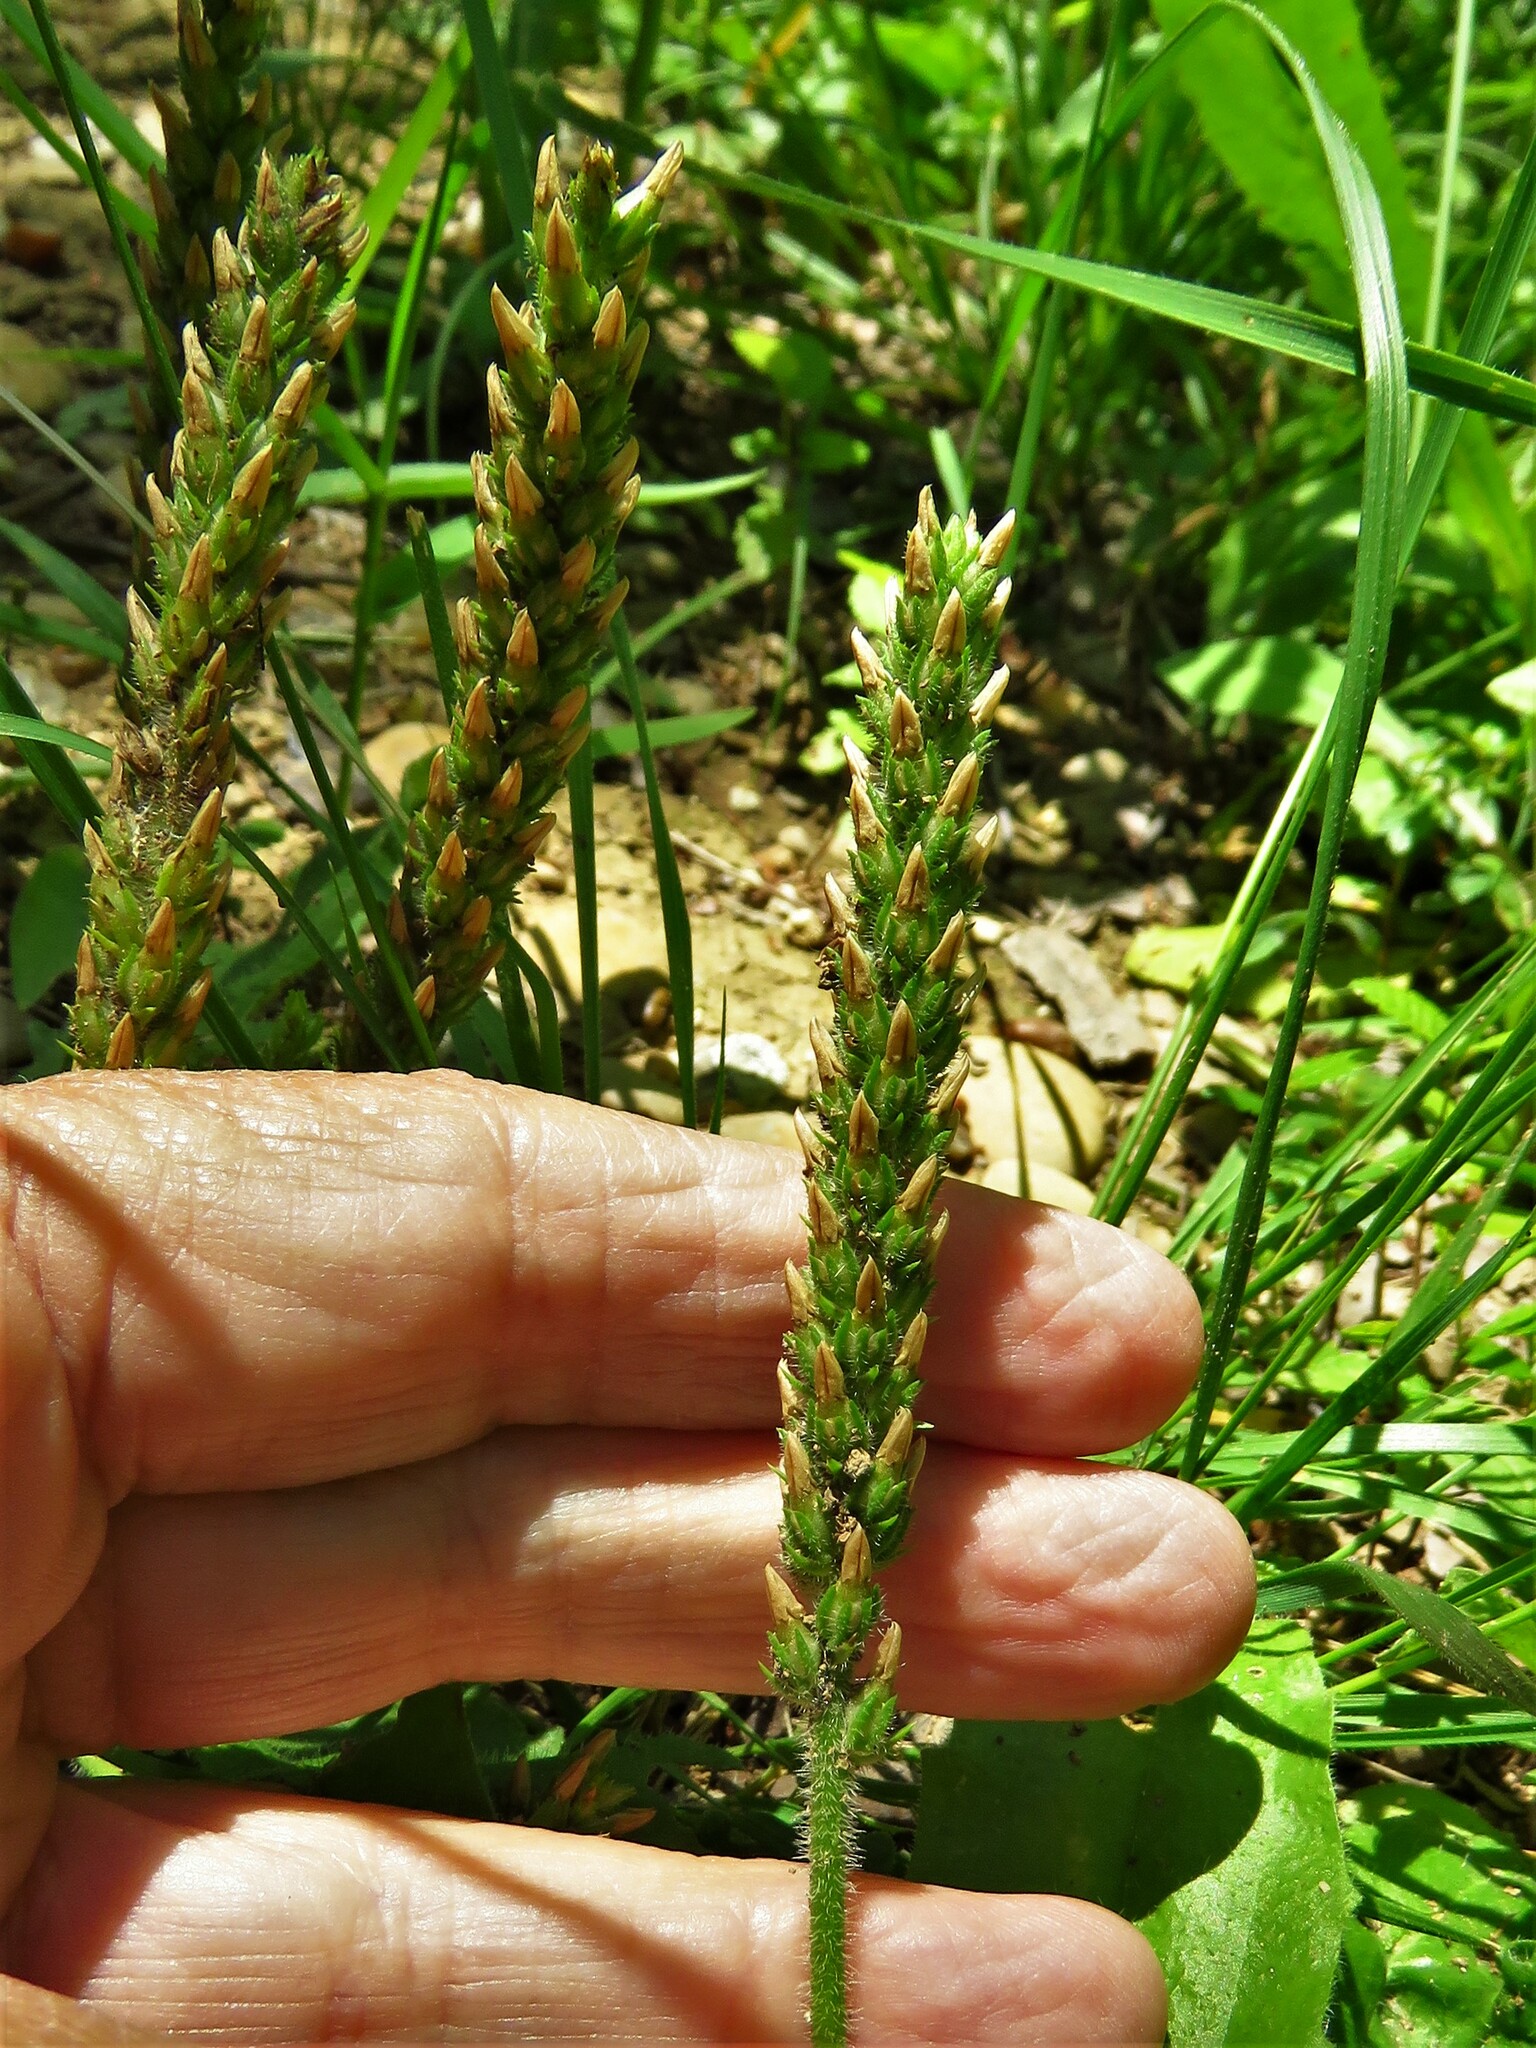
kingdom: Plantae
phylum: Tracheophyta
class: Magnoliopsida
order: Lamiales
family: Plantaginaceae
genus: Plantago
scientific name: Plantago rhodosperma
